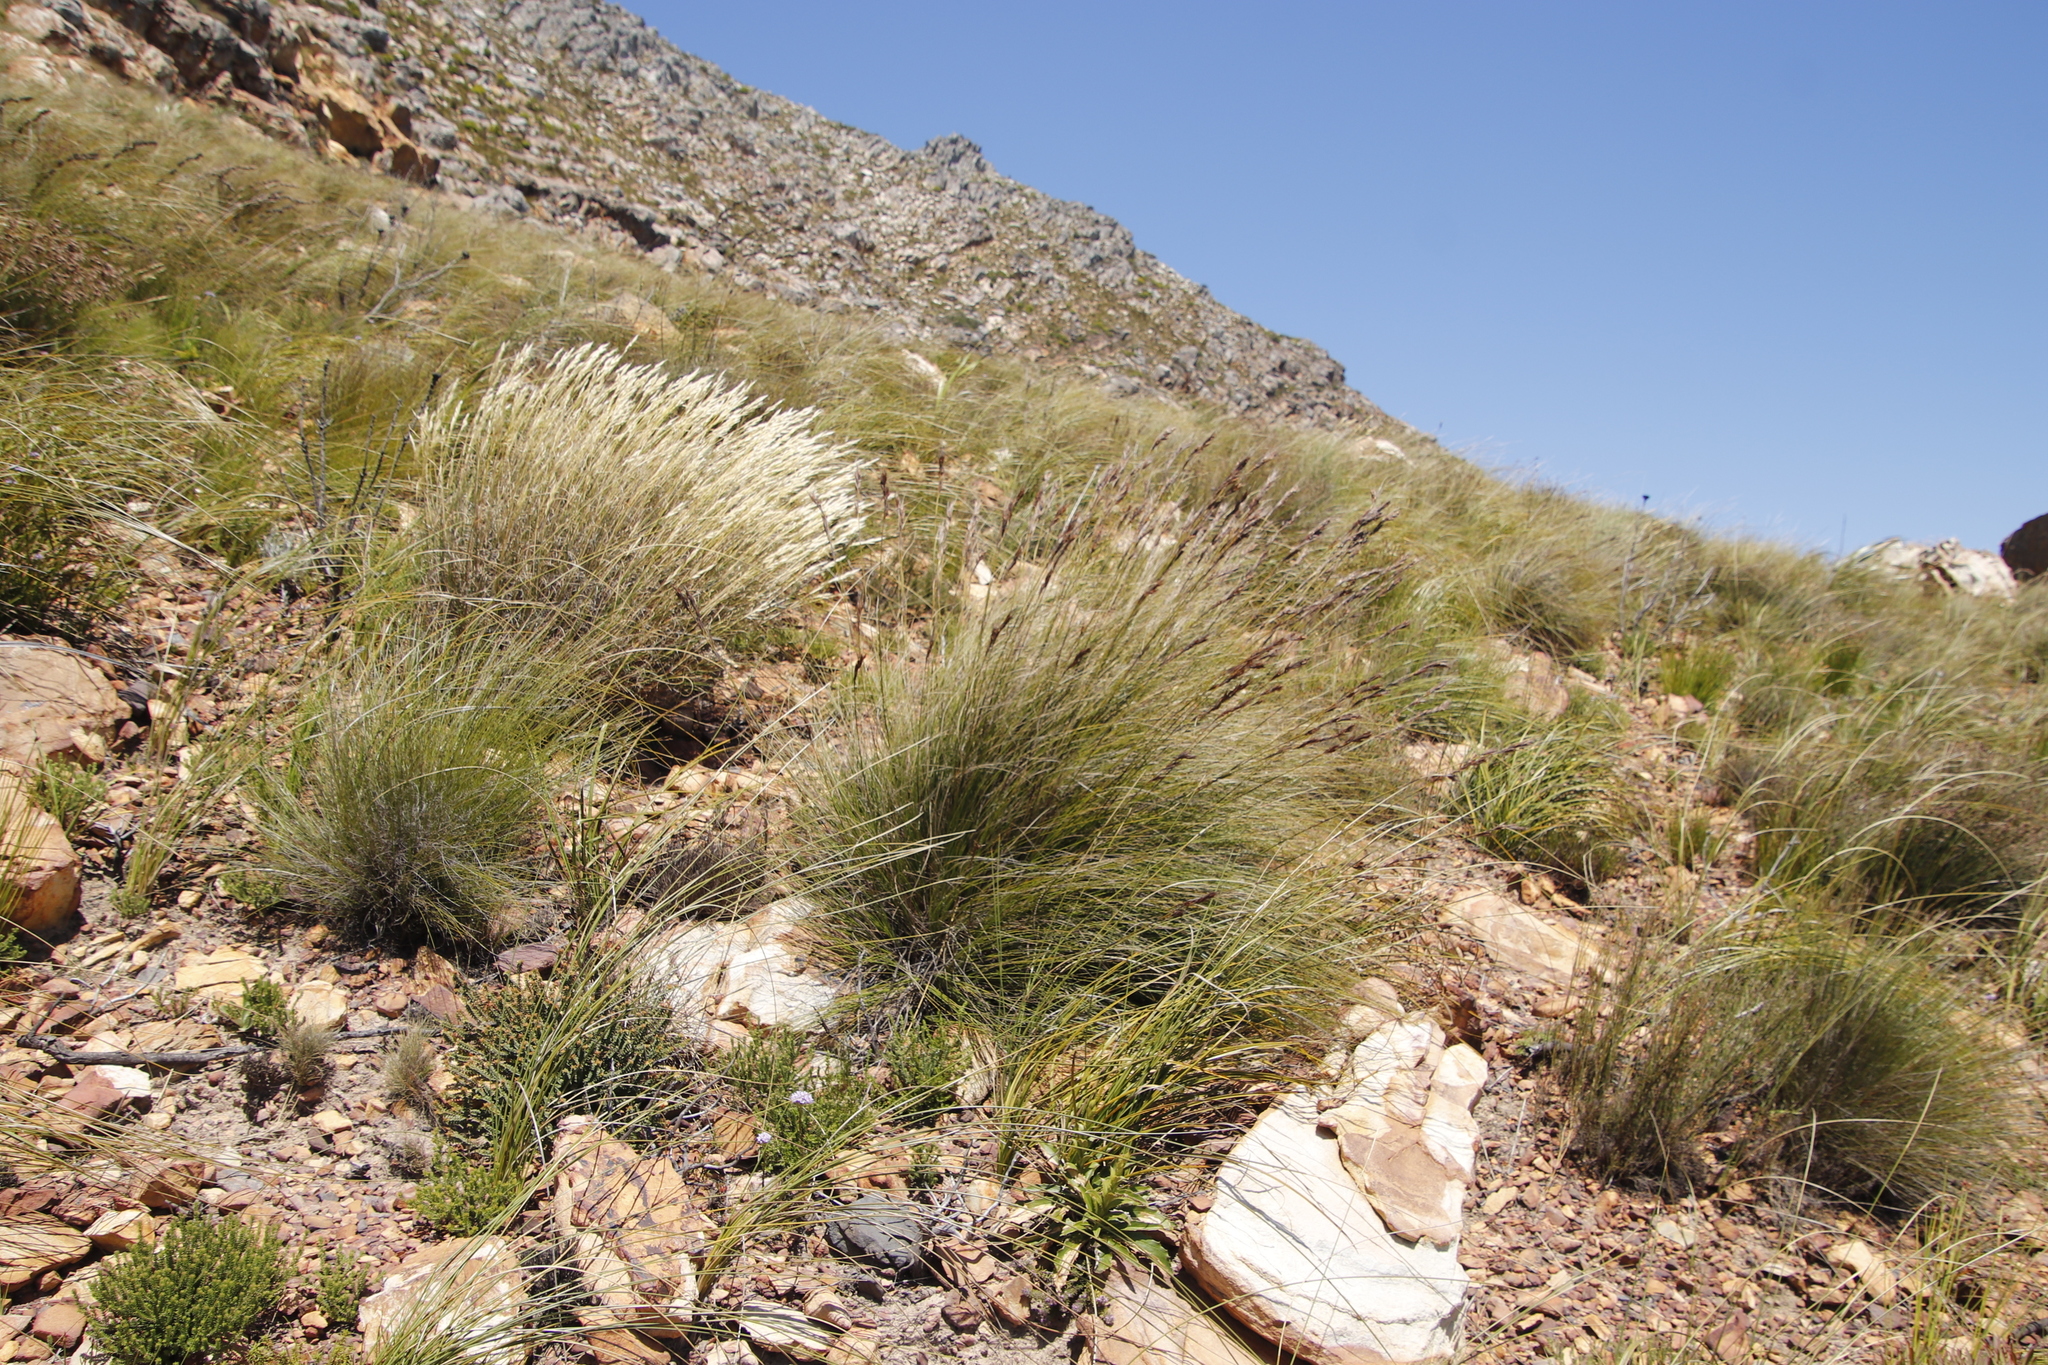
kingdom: Plantae
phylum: Tracheophyta
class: Liliopsida
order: Poales
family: Cyperaceae
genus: Tetraria
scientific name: Tetraria ustulata
